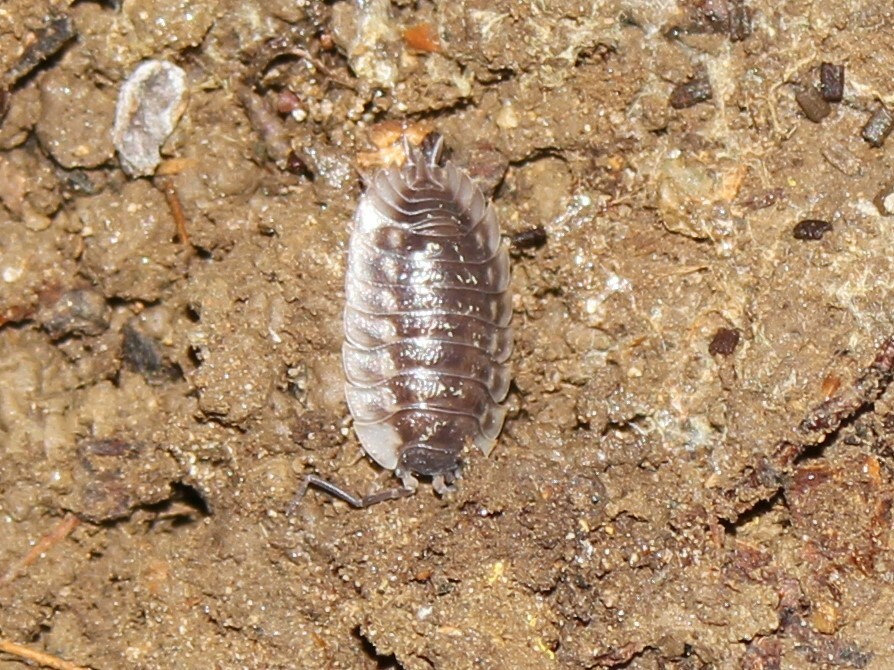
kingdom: Animalia
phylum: Arthropoda
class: Malacostraca
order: Isopoda
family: Oniscidae
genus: Oniscus
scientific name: Oniscus asellus
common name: Common shiny woodlouse
